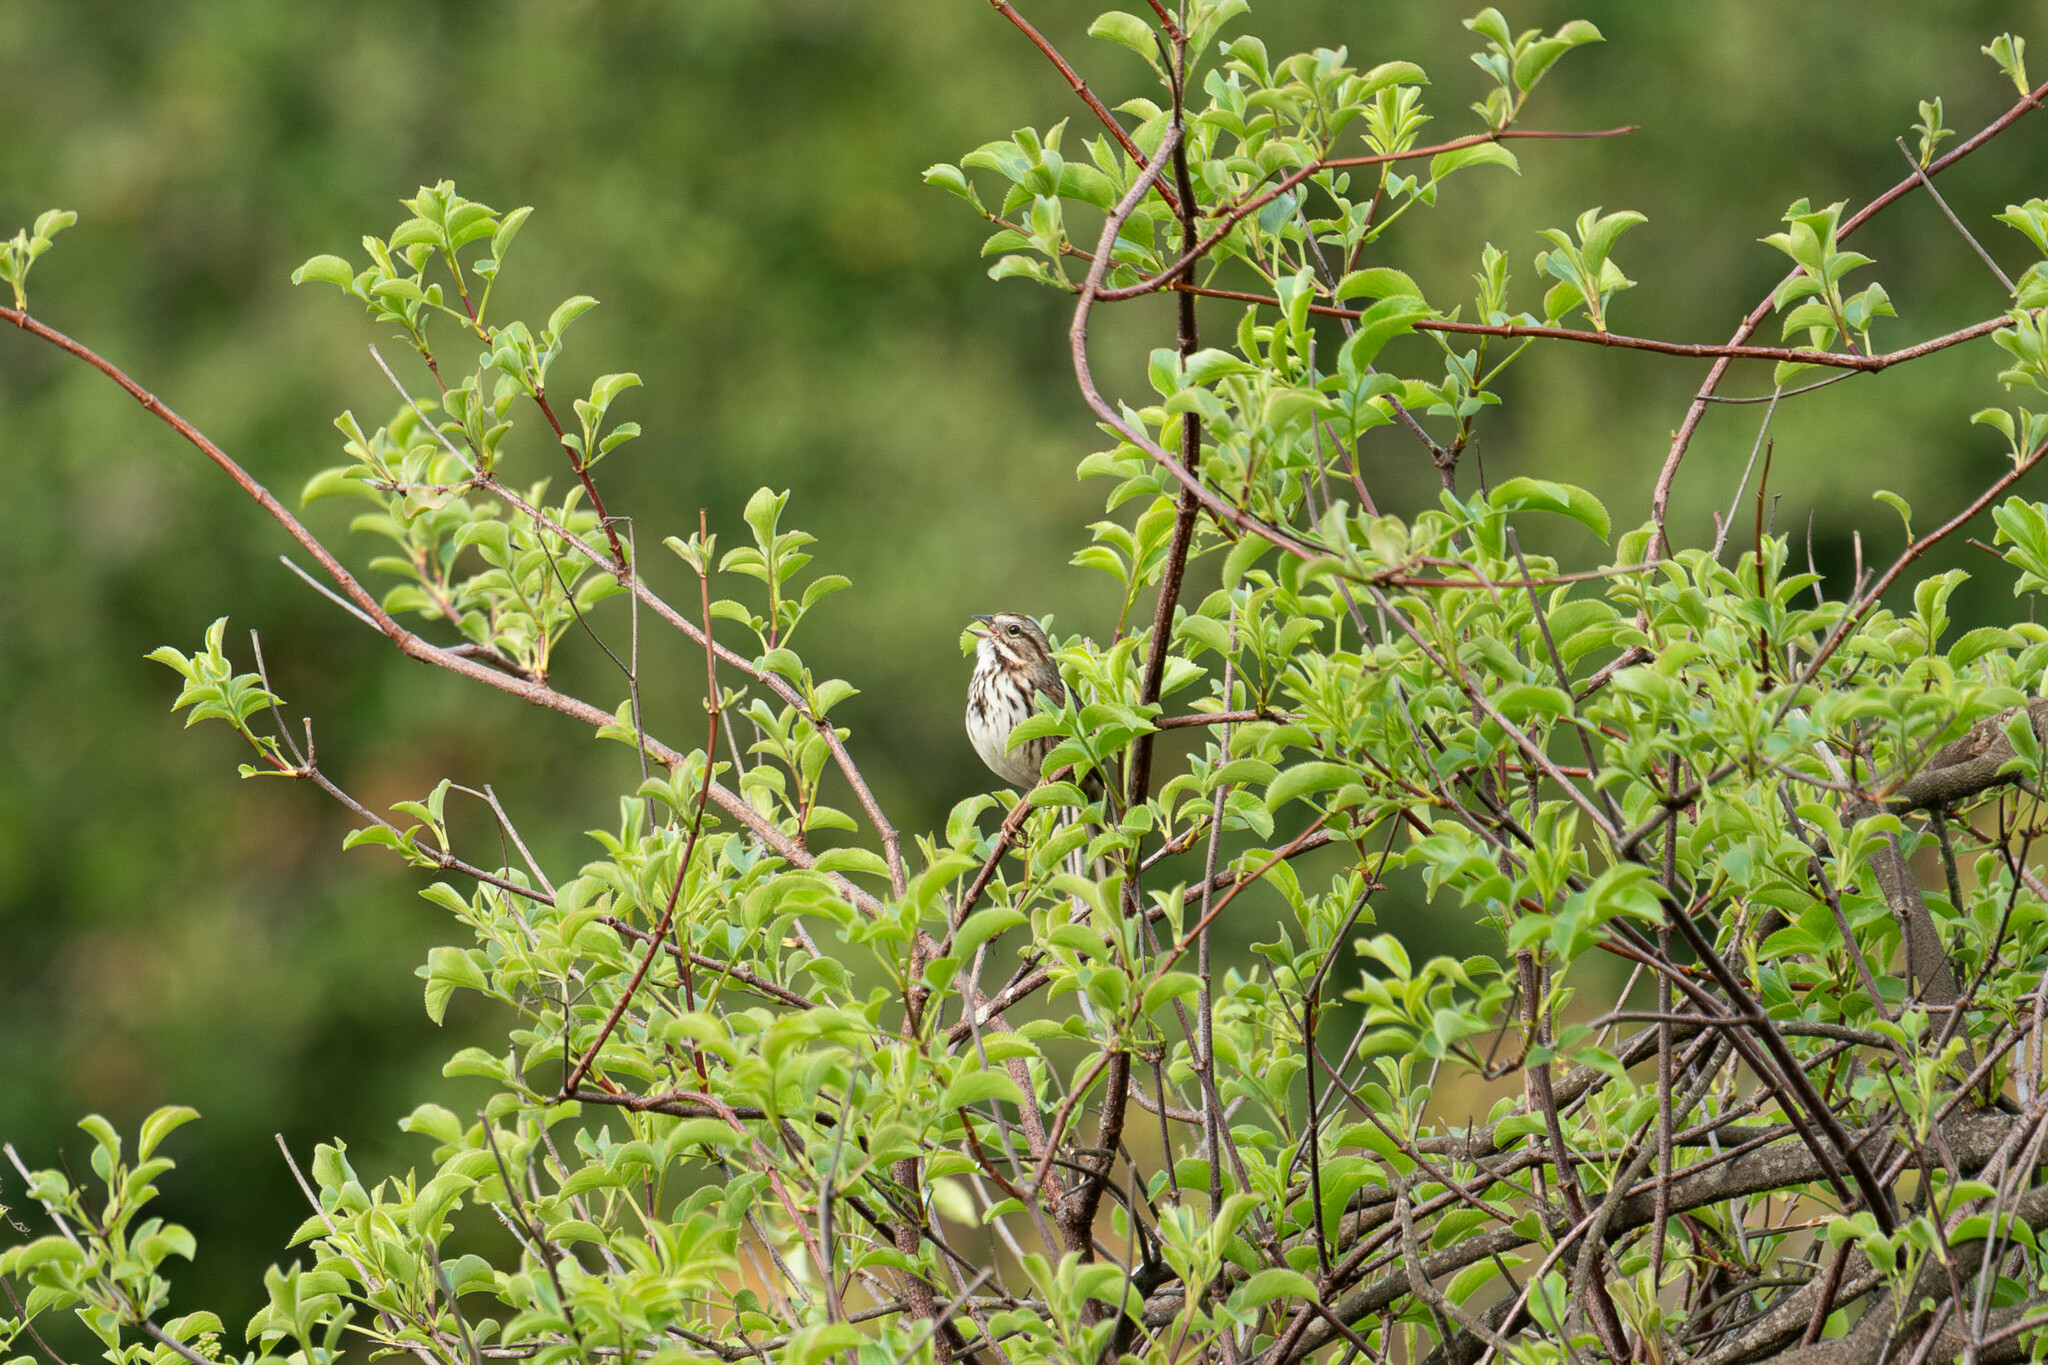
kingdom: Animalia
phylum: Chordata
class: Aves
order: Passeriformes
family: Passerellidae
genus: Melospiza
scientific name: Melospiza melodia
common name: Song sparrow
